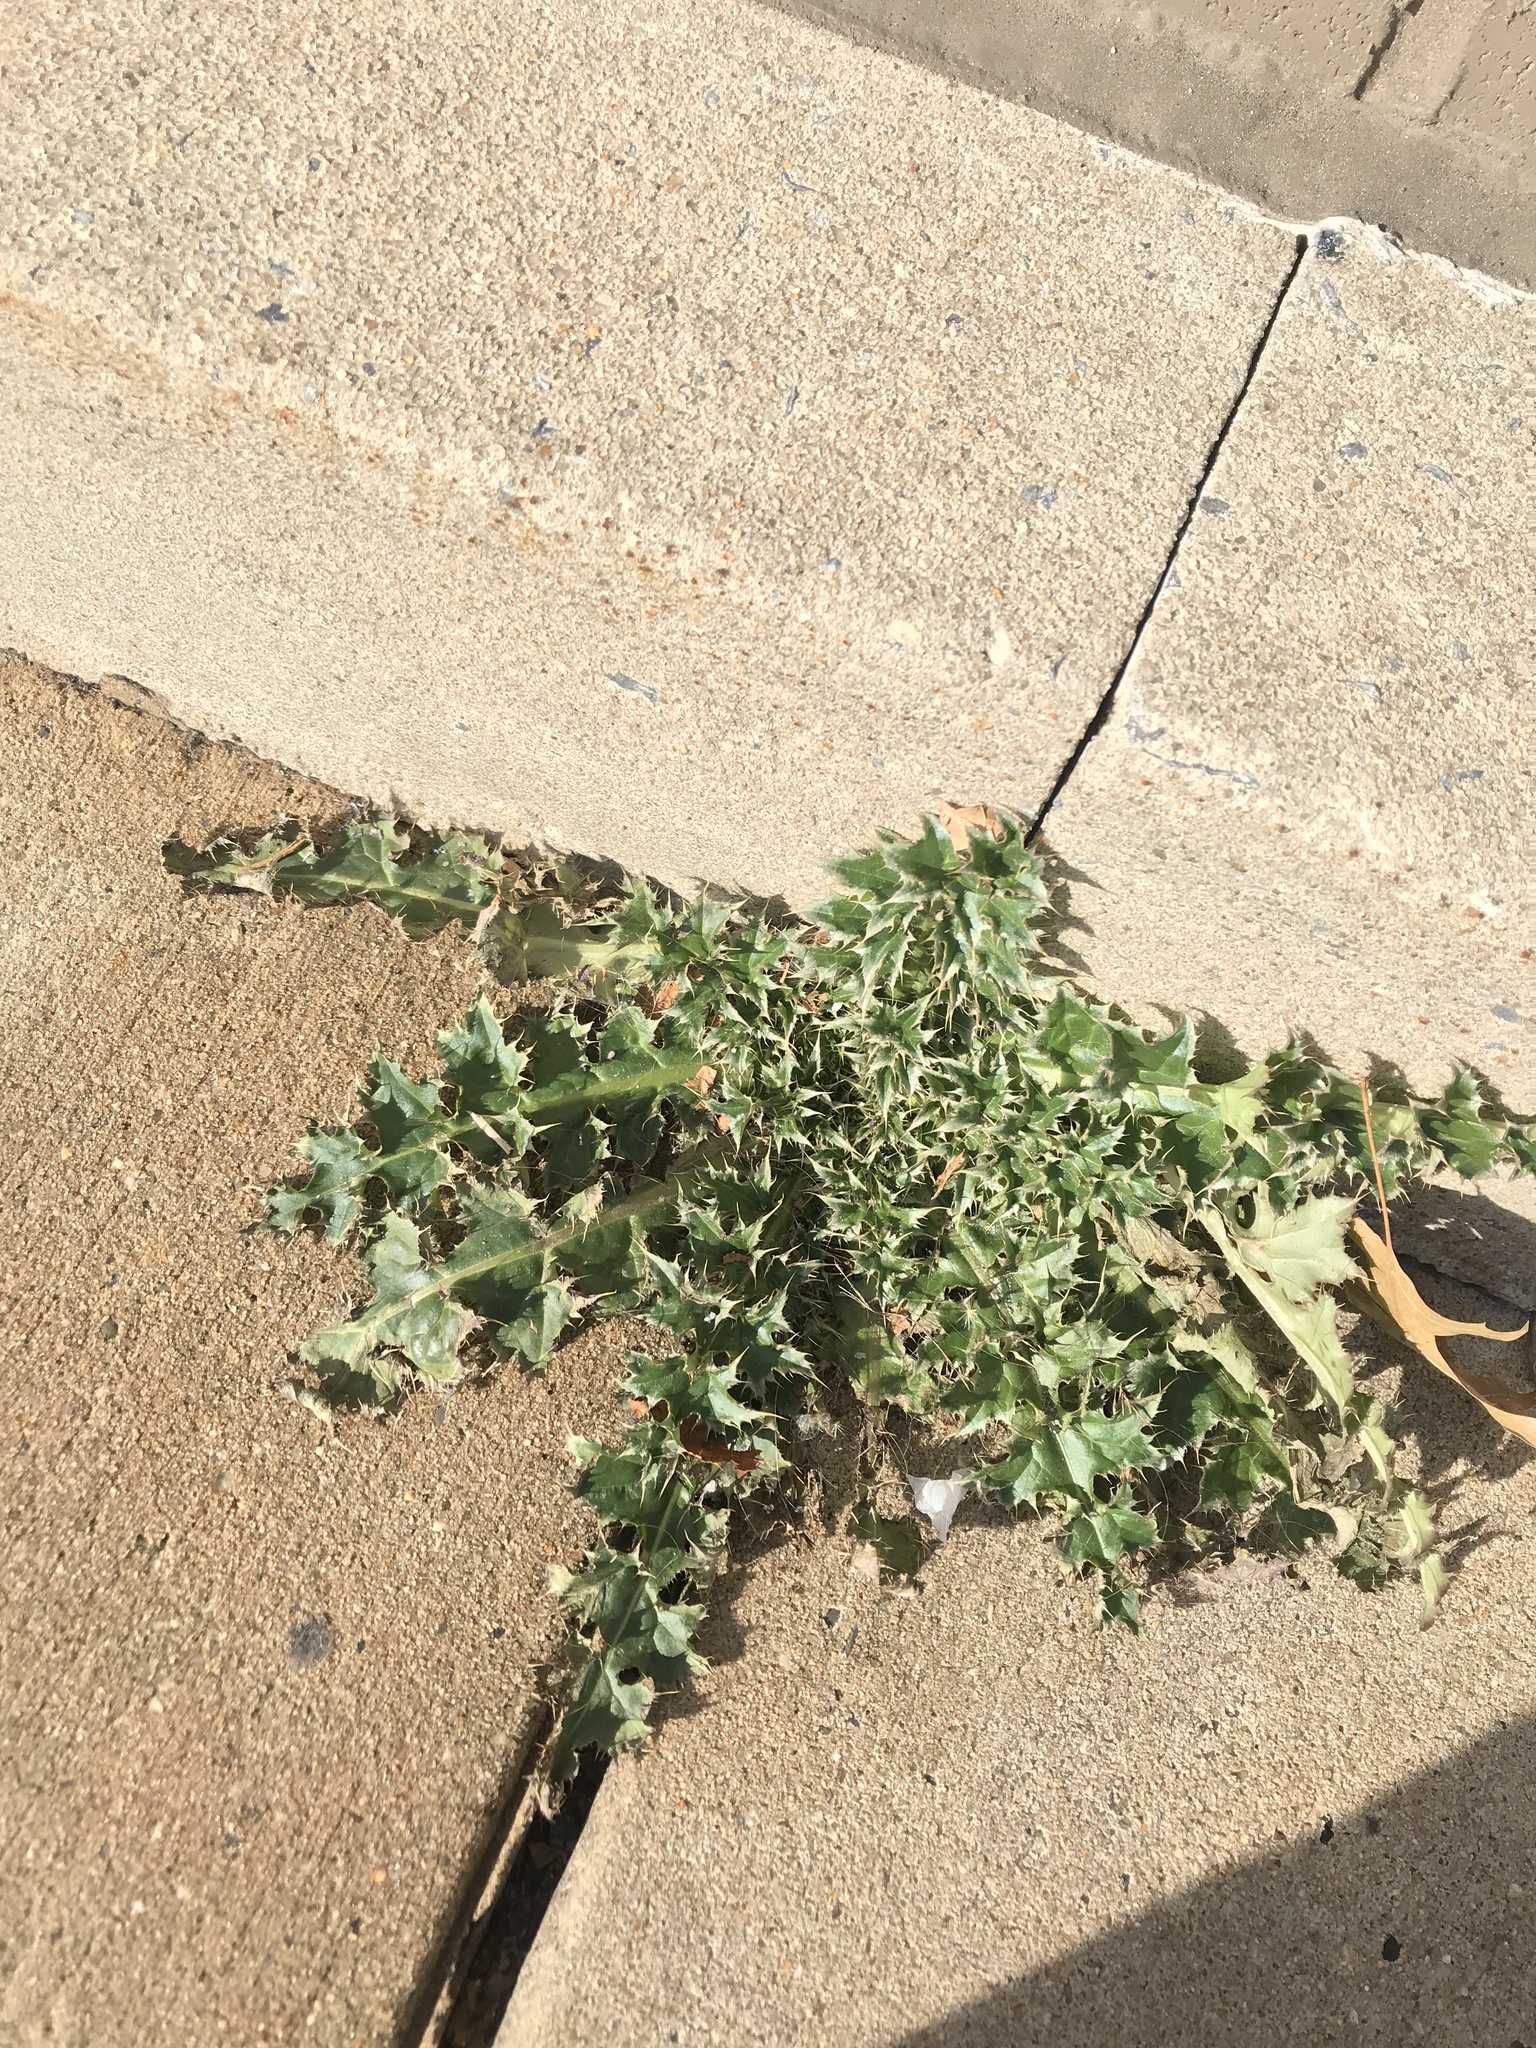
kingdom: Plantae
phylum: Tracheophyta
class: Magnoliopsida
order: Asterales
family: Asteraceae
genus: Carduus
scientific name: Carduus nutans
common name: Musk thistle
